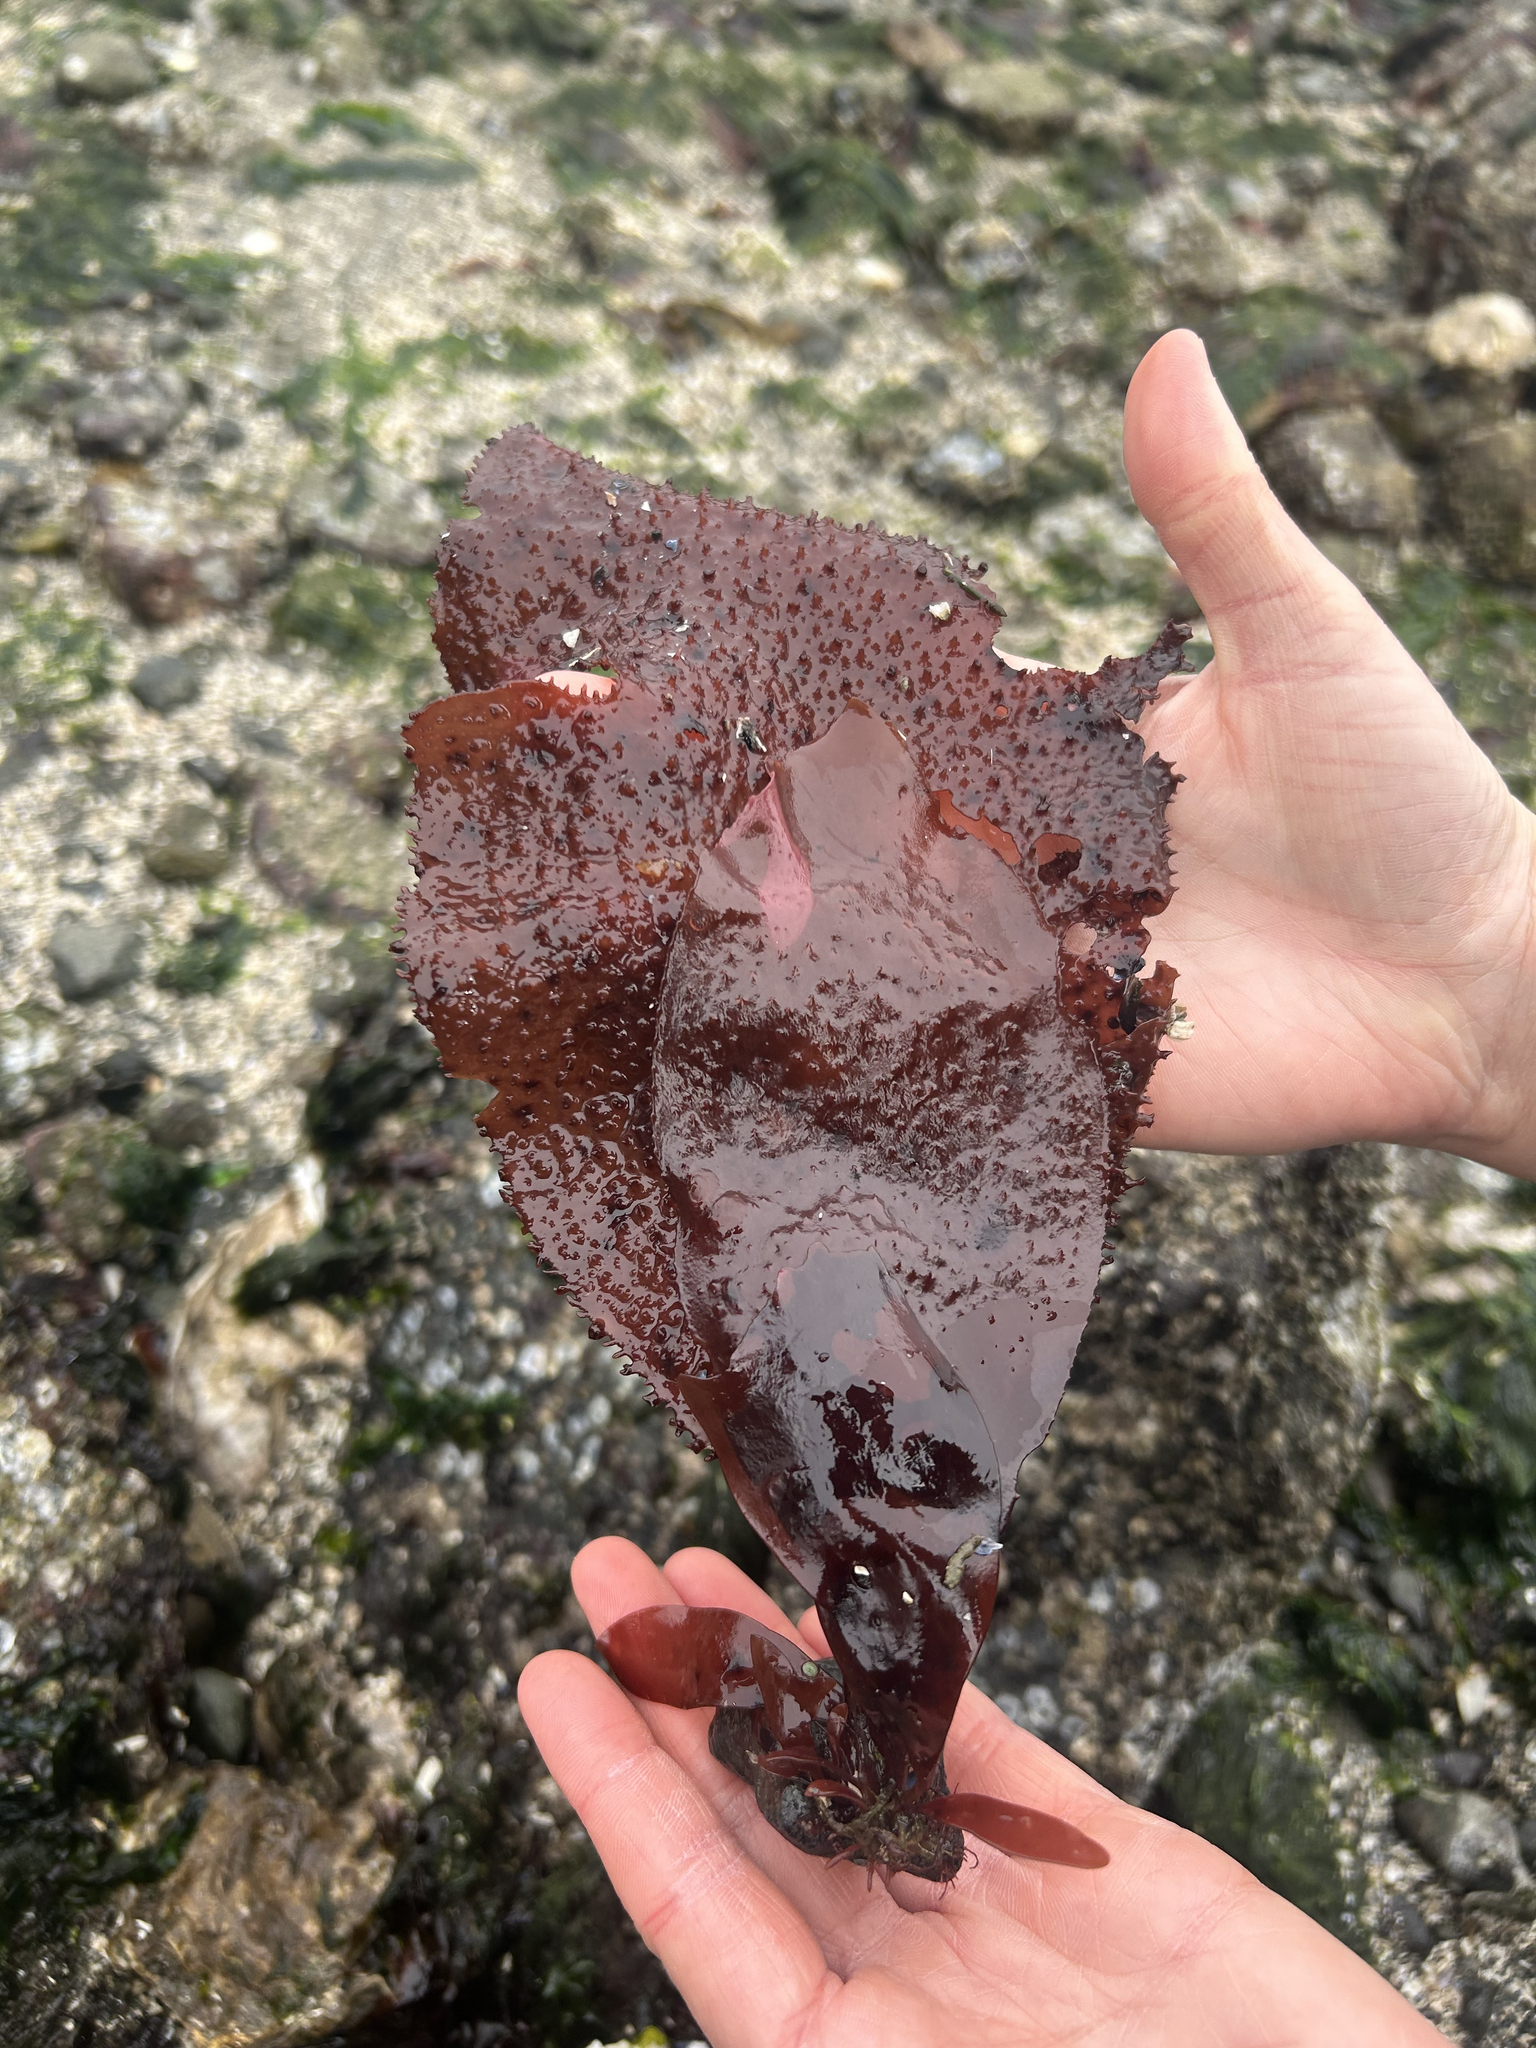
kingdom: Plantae
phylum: Rhodophyta
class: Florideophyceae
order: Gigartinales
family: Gigartinaceae
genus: Chondracanthus
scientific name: Chondracanthus exasperatus
